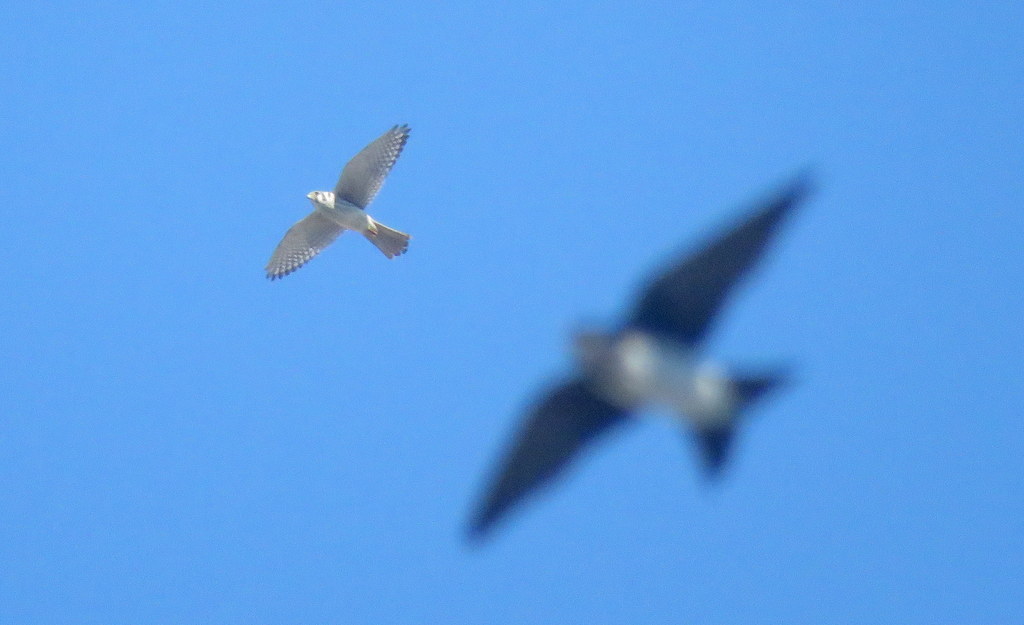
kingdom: Animalia
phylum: Chordata
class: Aves
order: Falconiformes
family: Falconidae
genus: Falco
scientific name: Falco sparverius
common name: American kestrel
